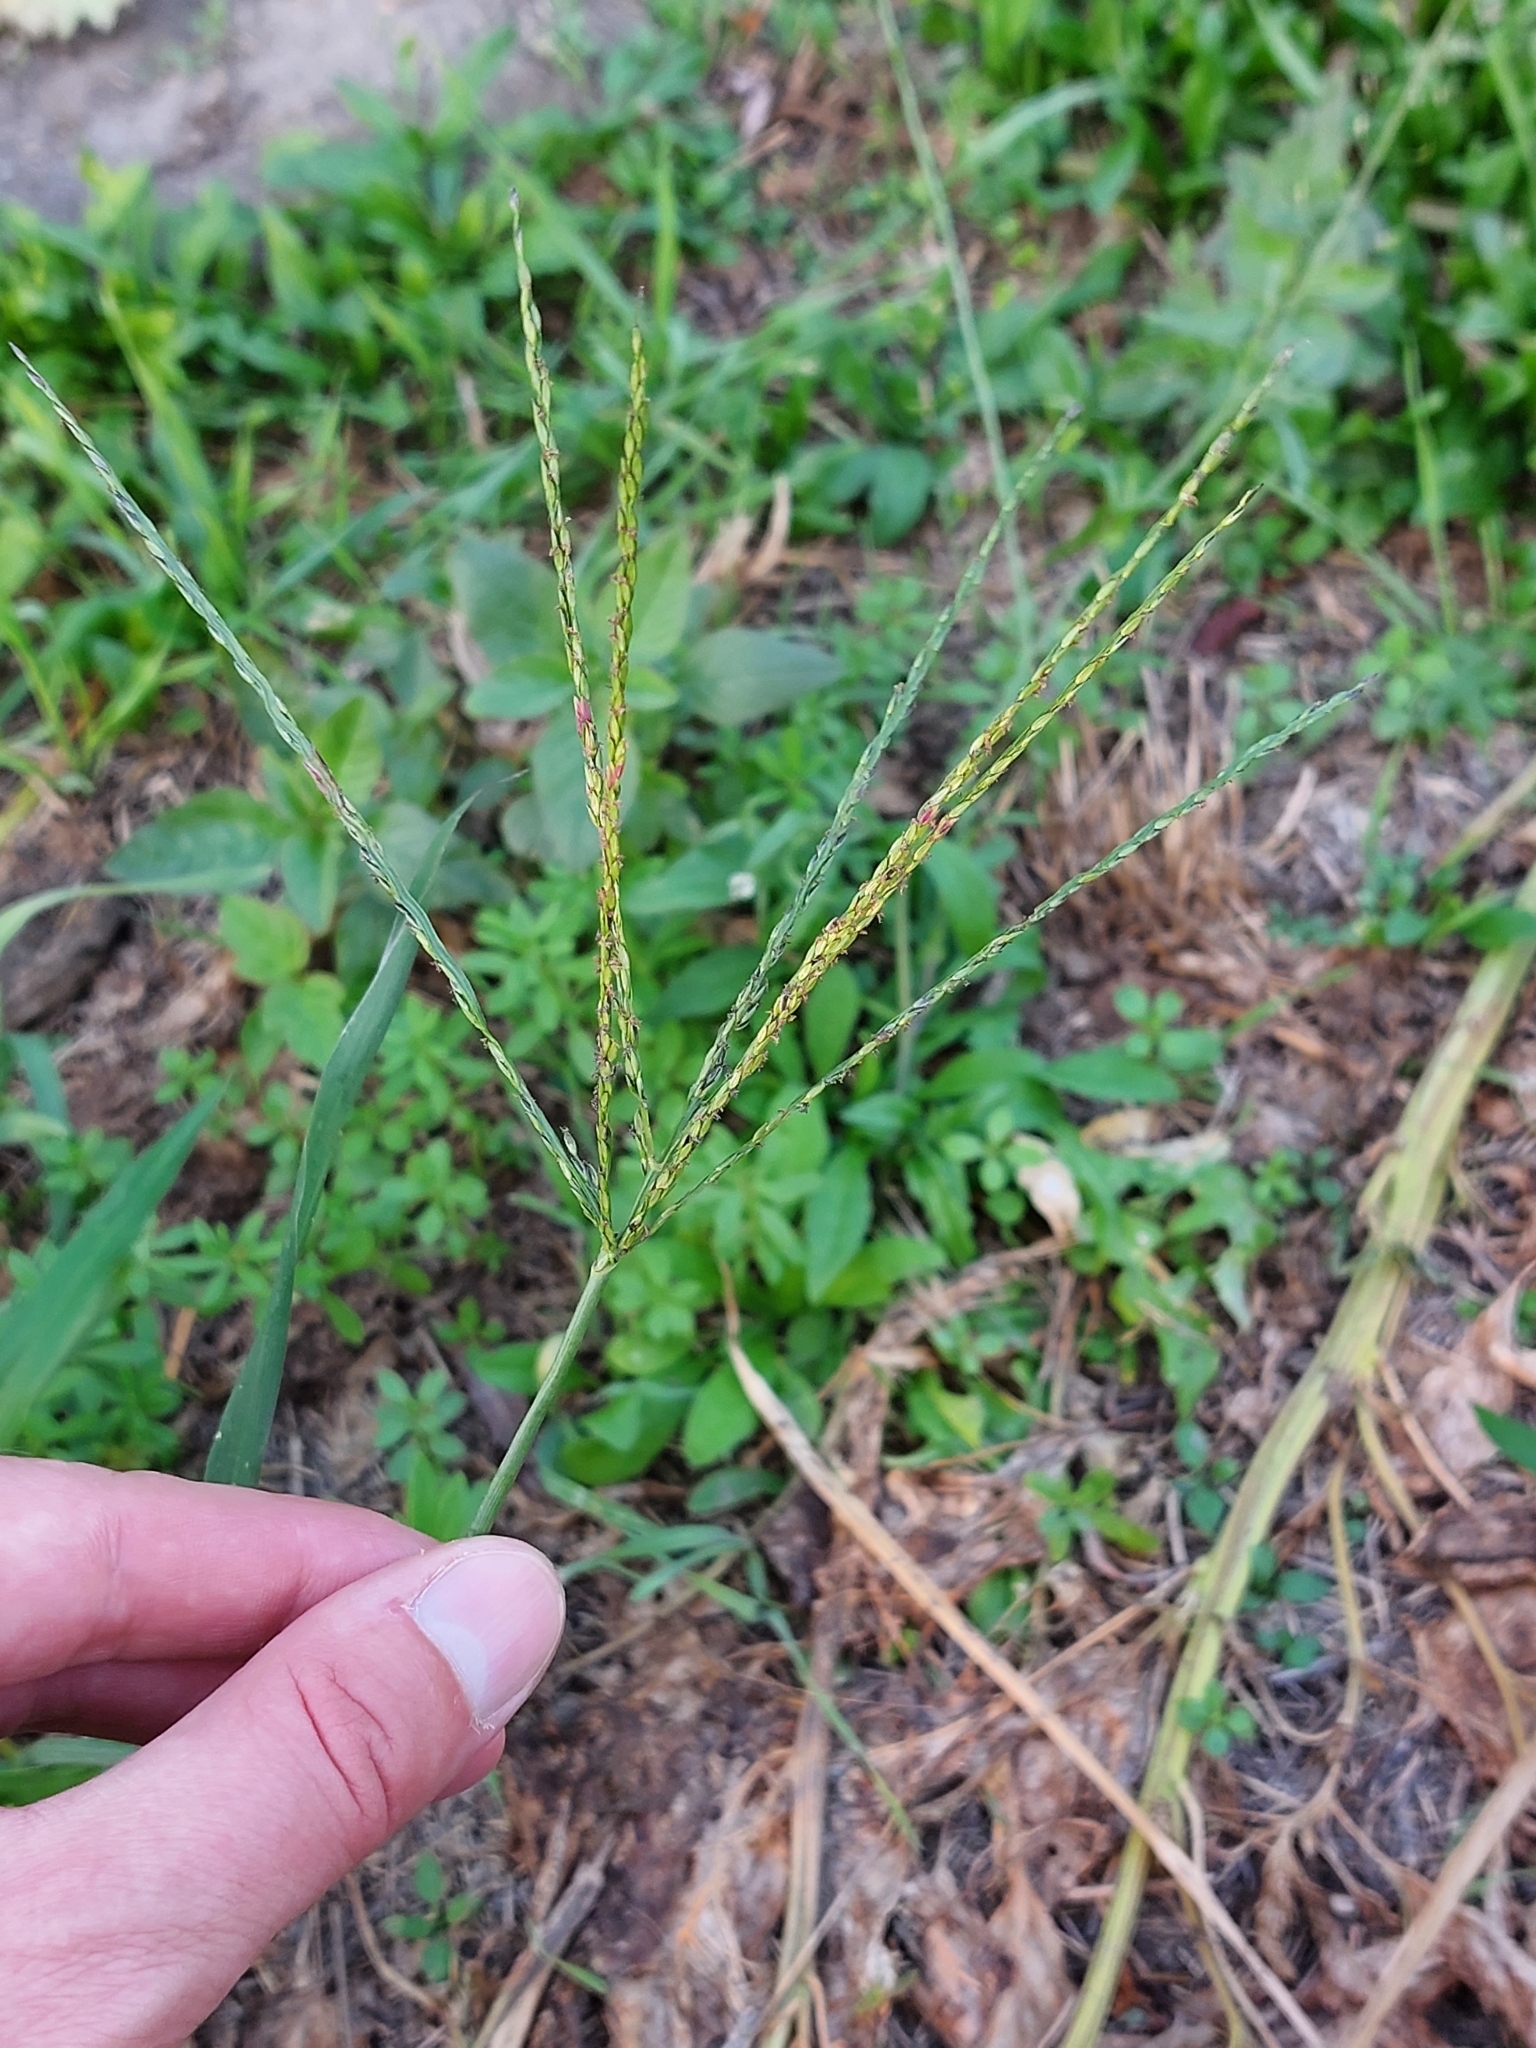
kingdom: Plantae
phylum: Tracheophyta
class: Liliopsida
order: Poales
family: Poaceae
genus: Digitaria
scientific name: Digitaria sanguinalis
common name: Hairy crabgrass
